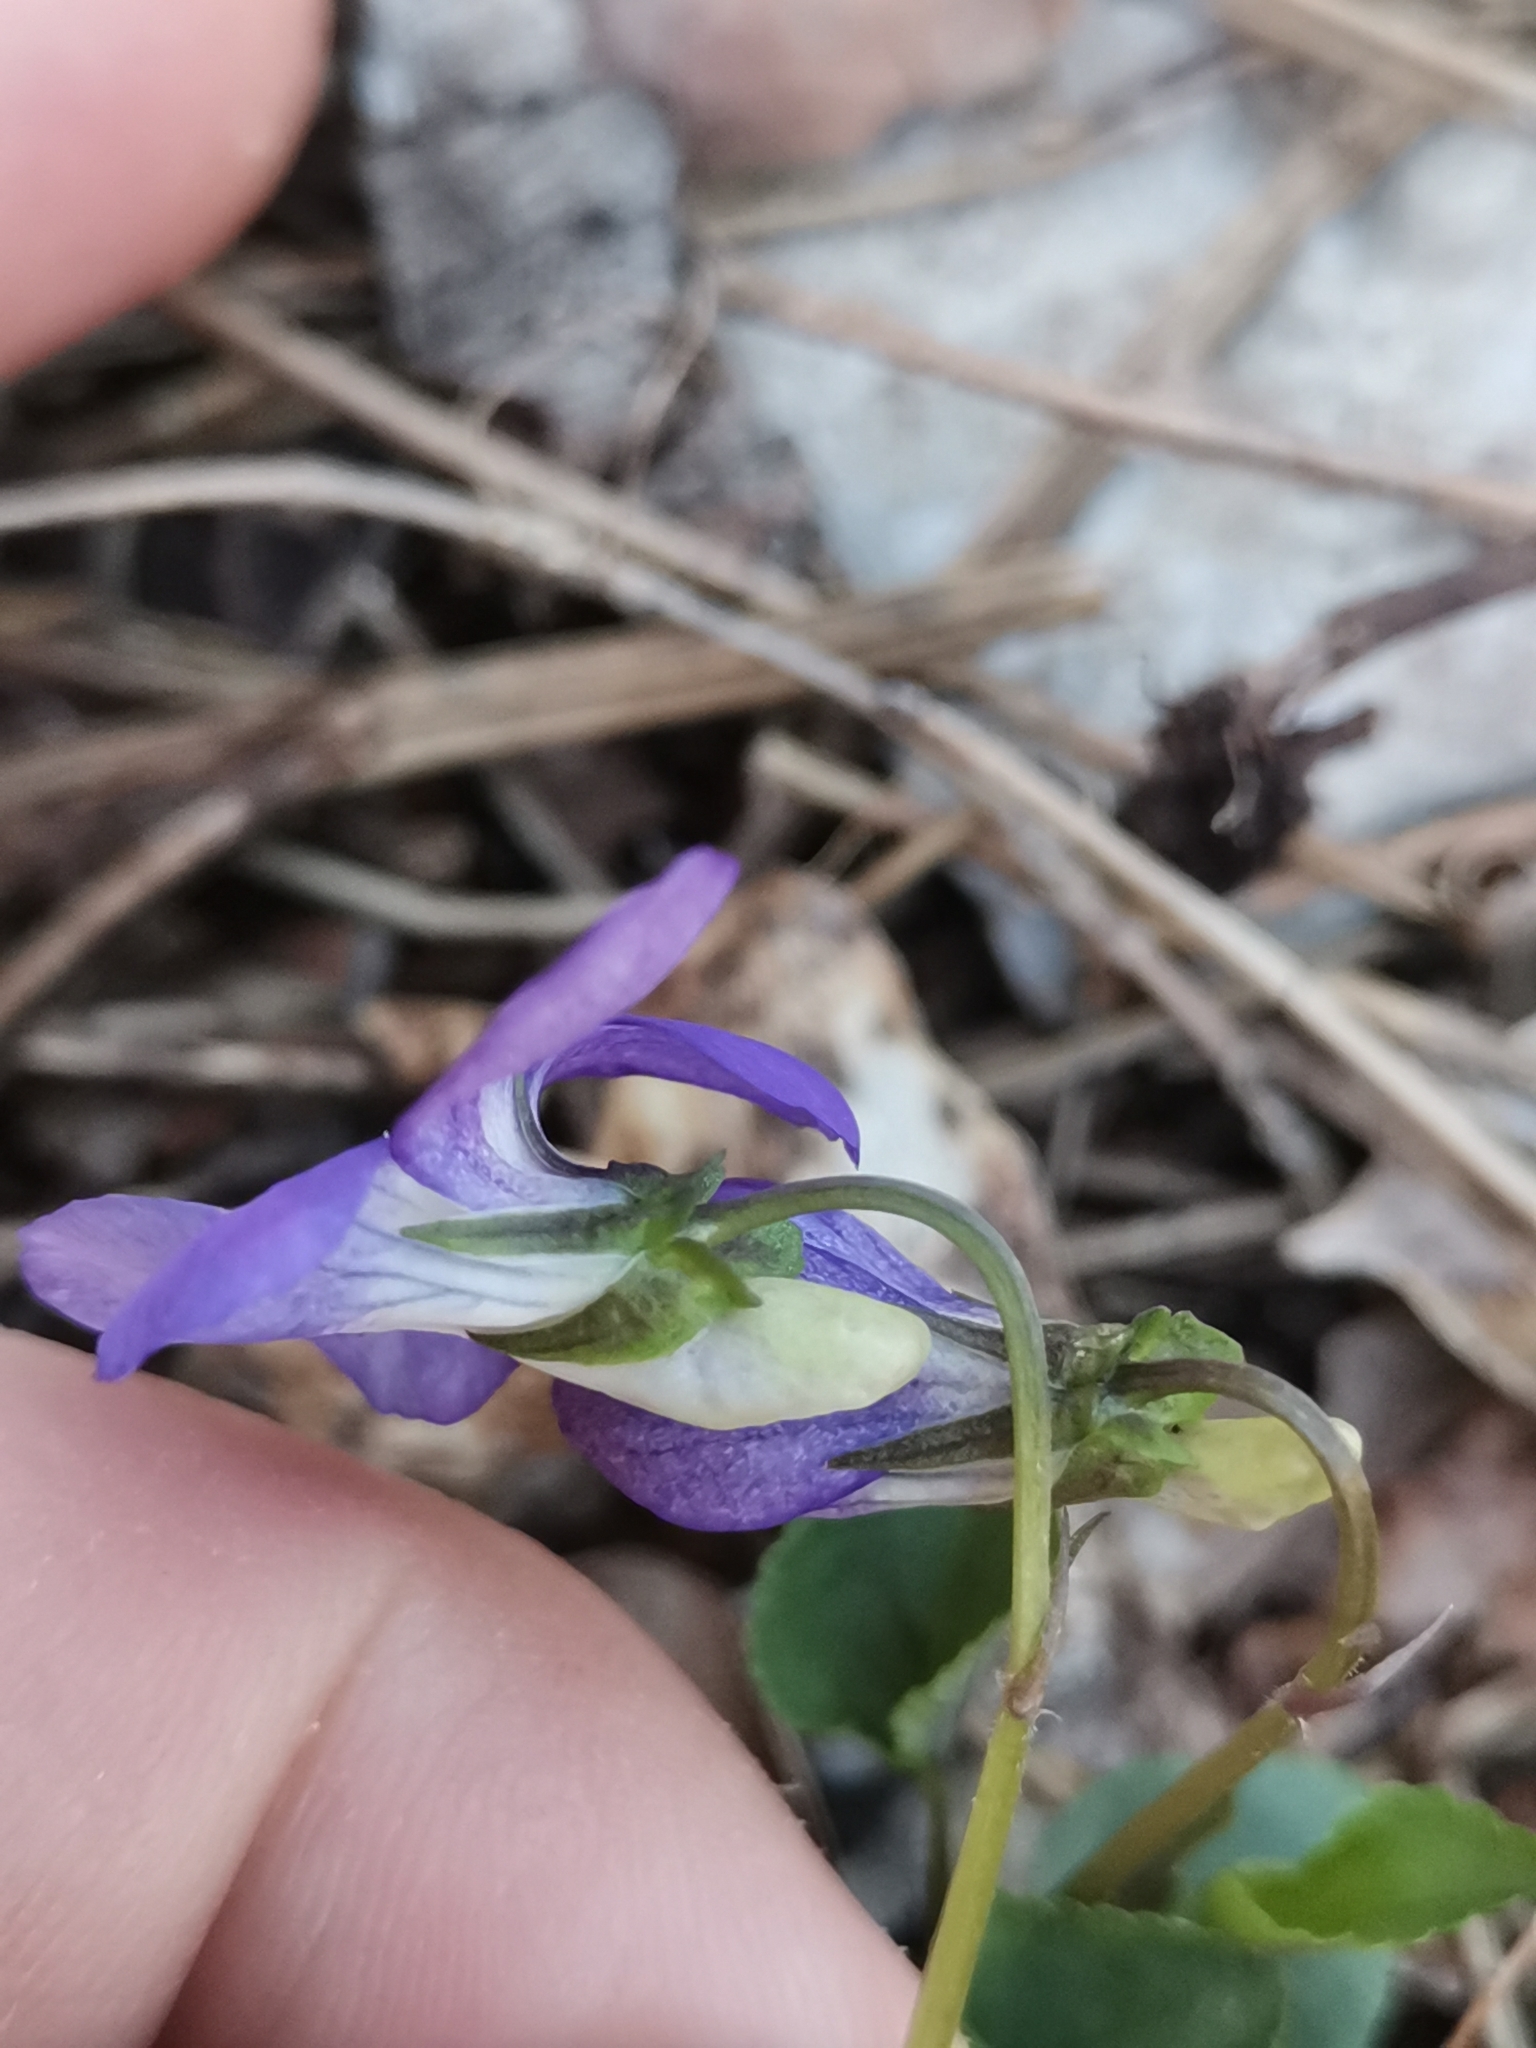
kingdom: Plantae
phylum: Tracheophyta
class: Magnoliopsida
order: Malpighiales
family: Violaceae
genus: Viola
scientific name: Viola riviniana
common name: Common dog-violet
